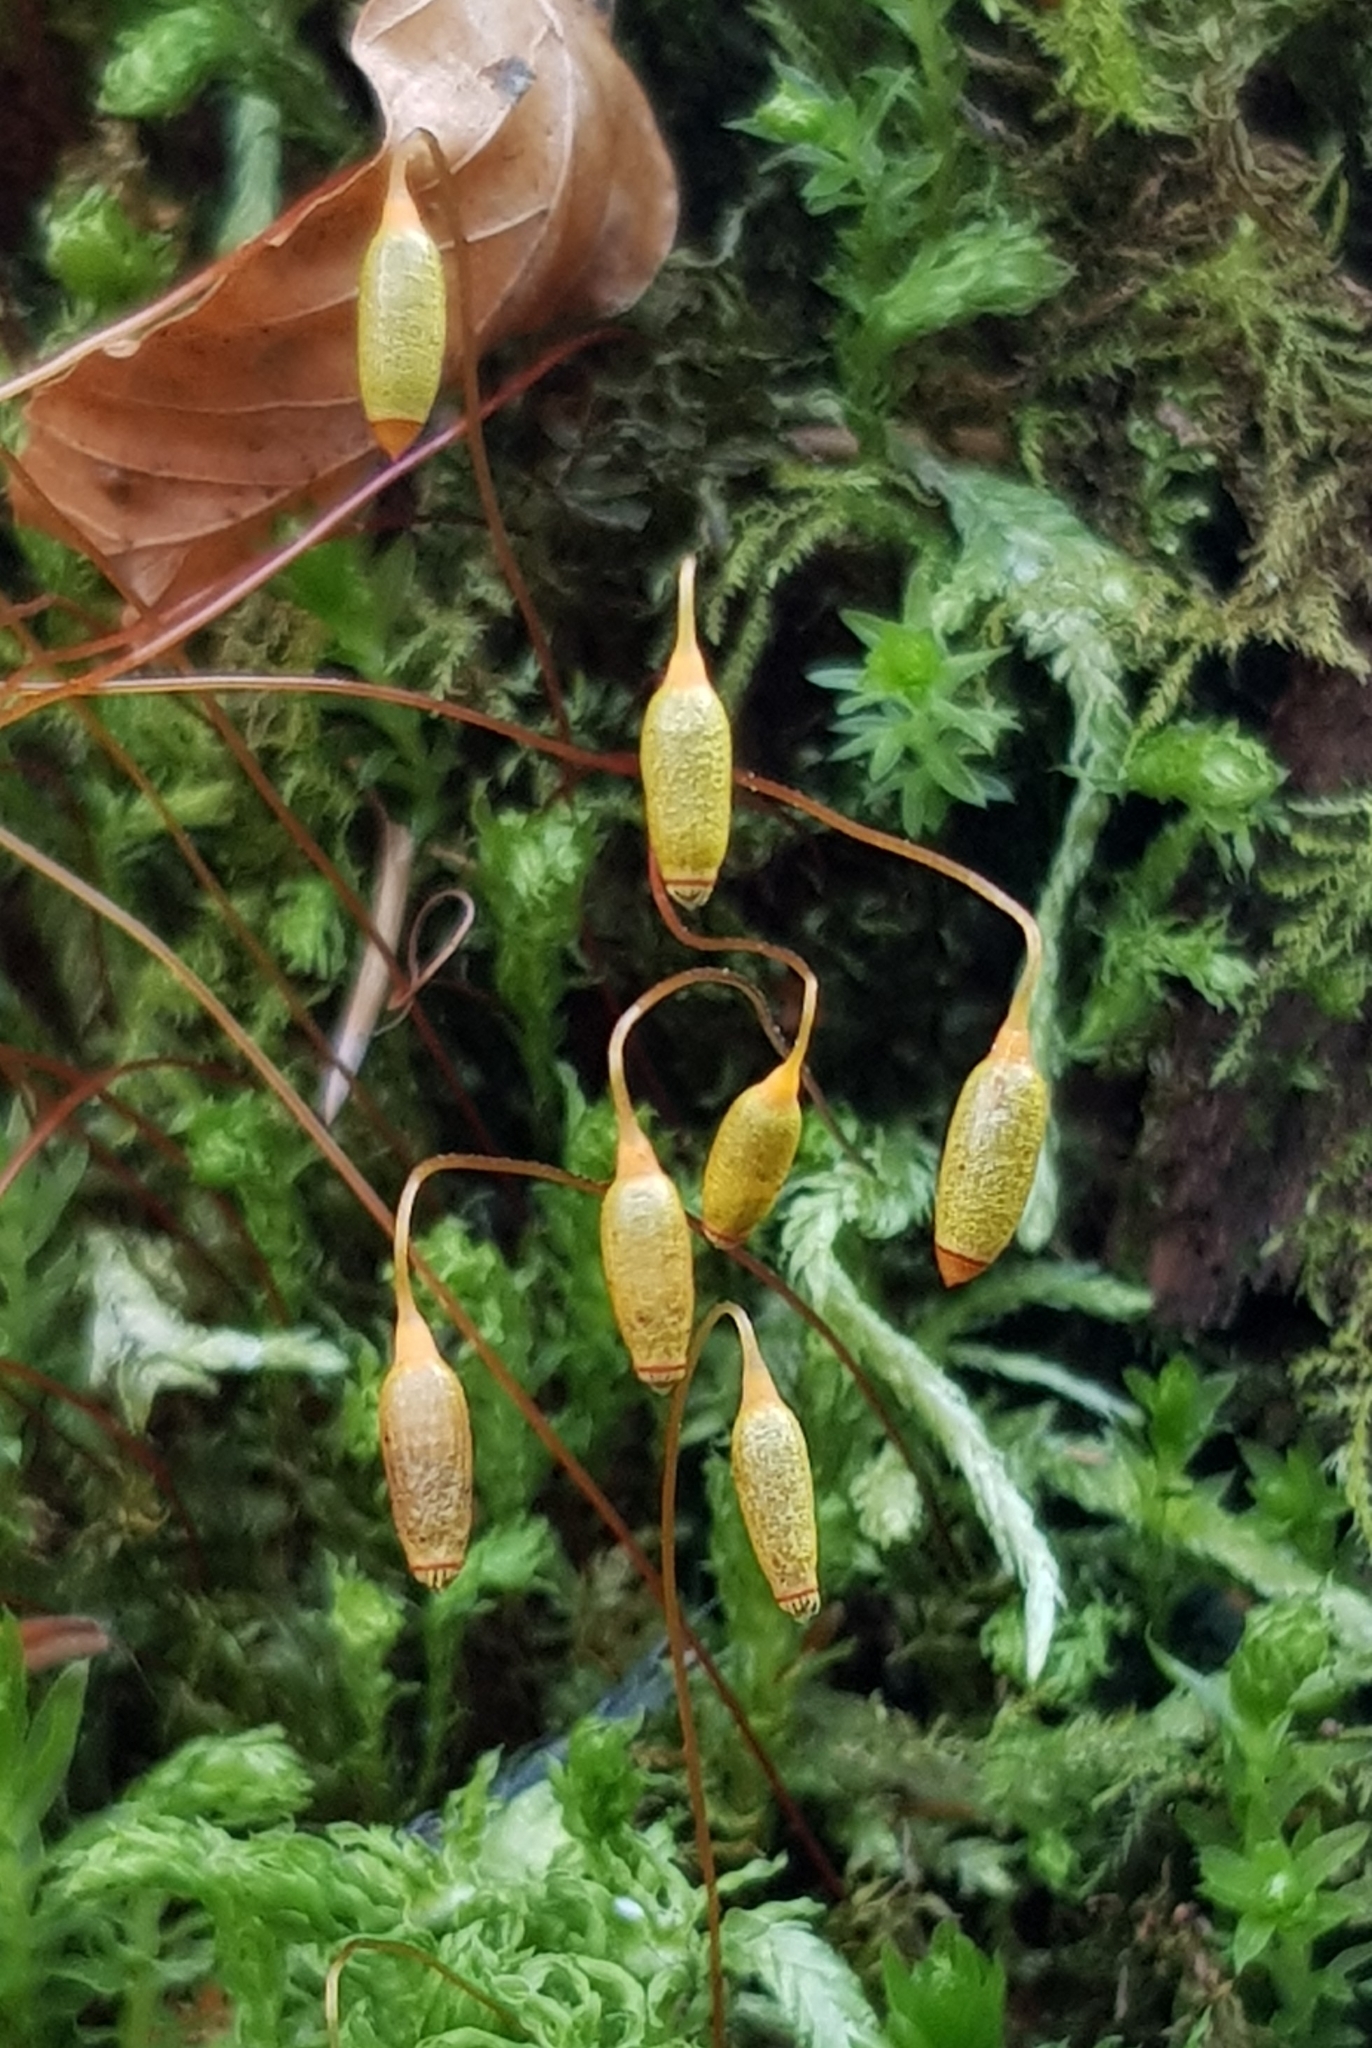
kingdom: Plantae
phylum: Bryophyta
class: Bryopsida
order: Bryales
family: Mniaceae
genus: Mnium
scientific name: Mnium hornum
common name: Swan's-neck leafy moss
